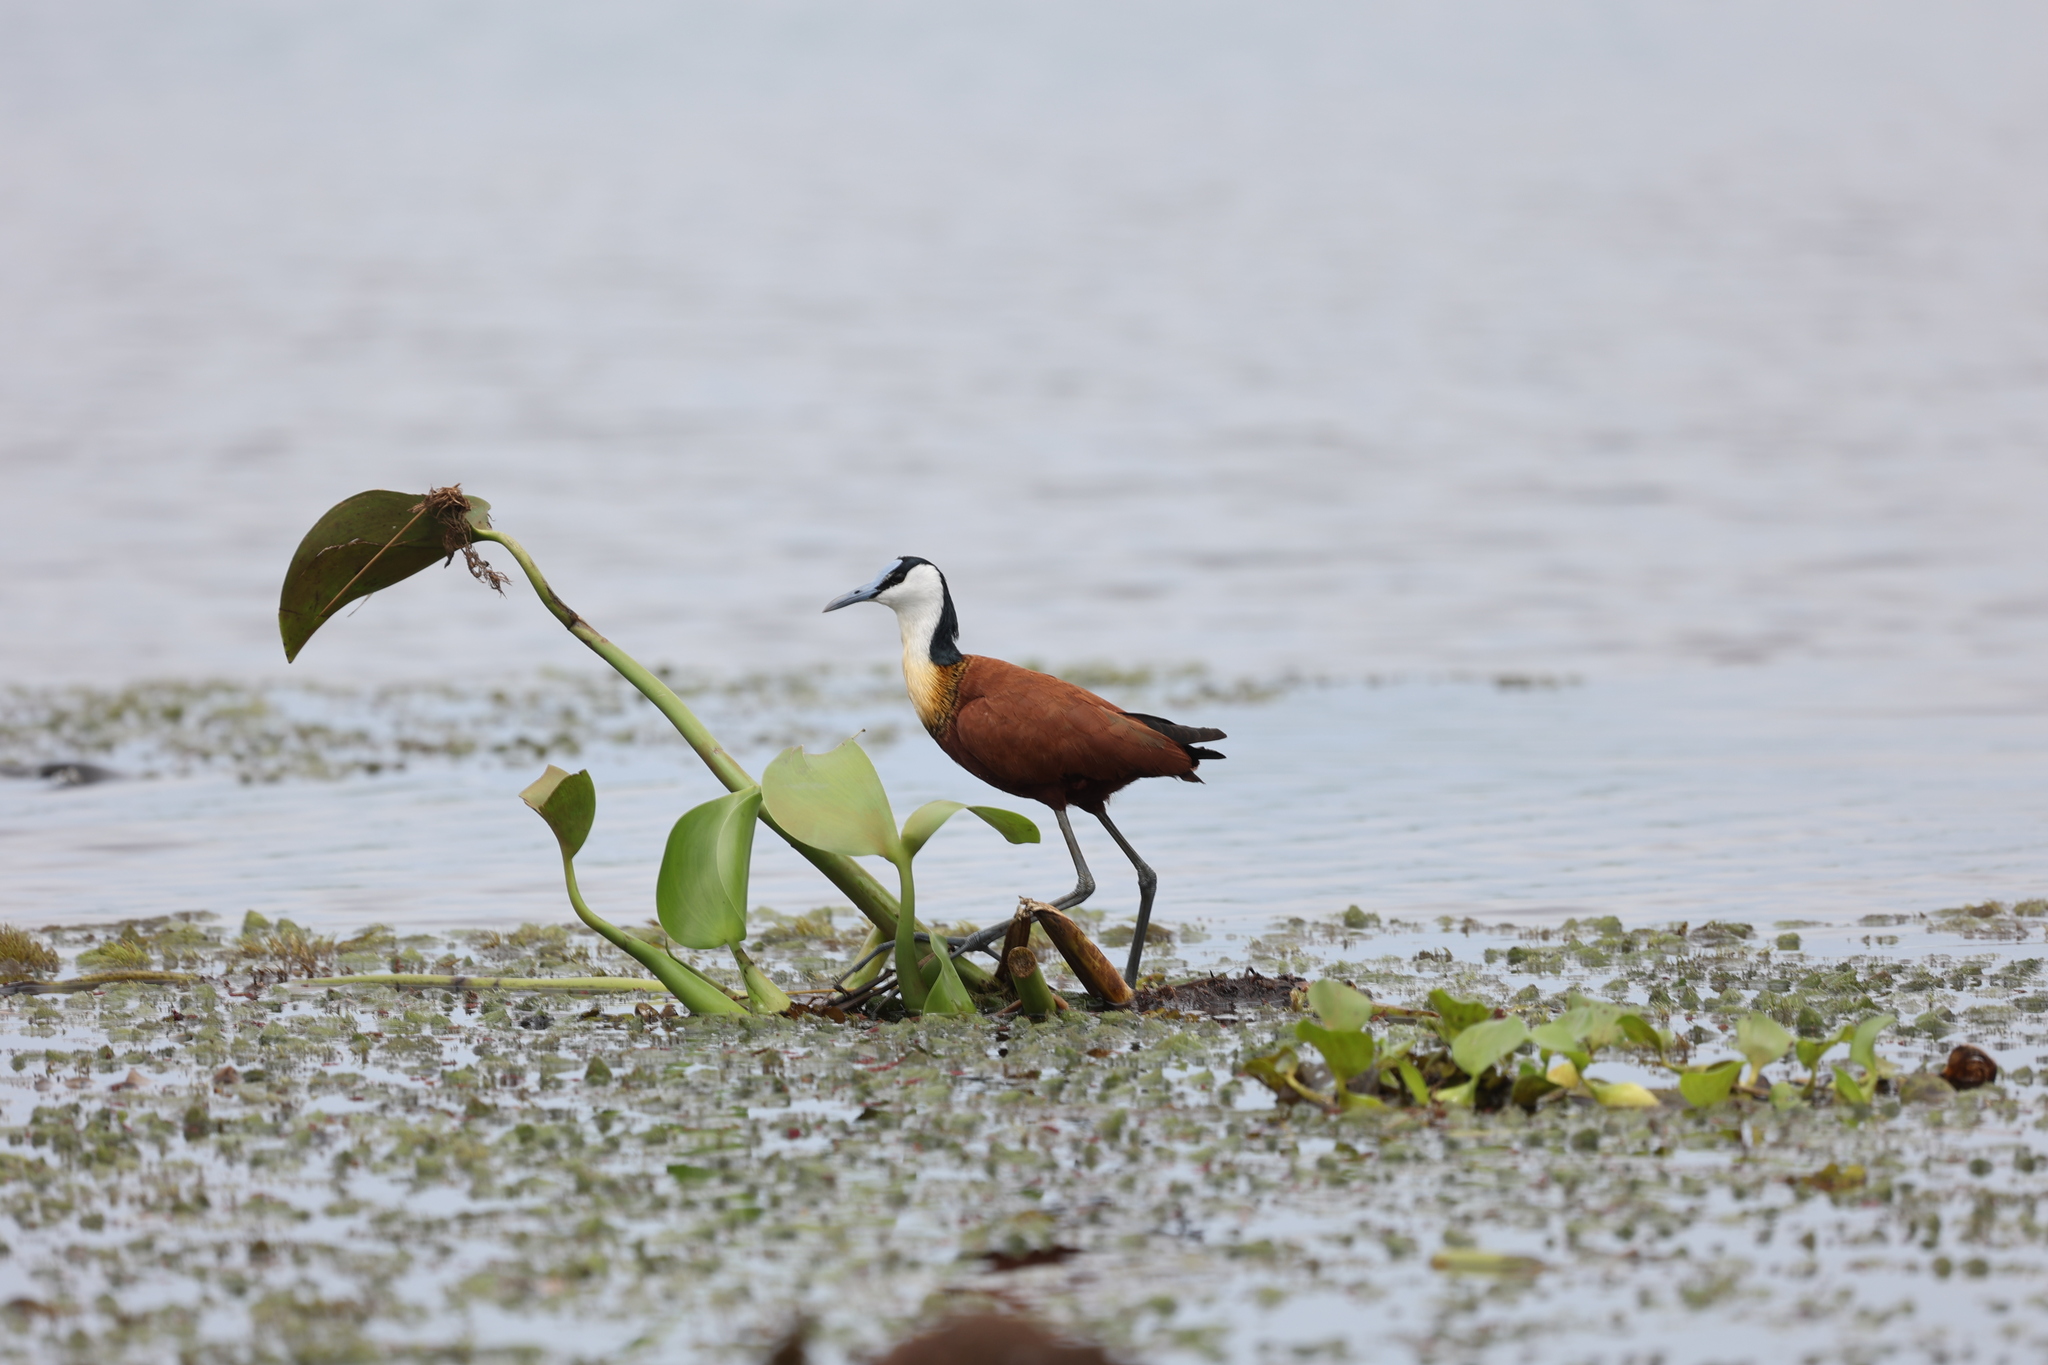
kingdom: Animalia
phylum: Chordata
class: Aves
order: Charadriiformes
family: Jacanidae
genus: Actophilornis
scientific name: Actophilornis africanus
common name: African jacana
